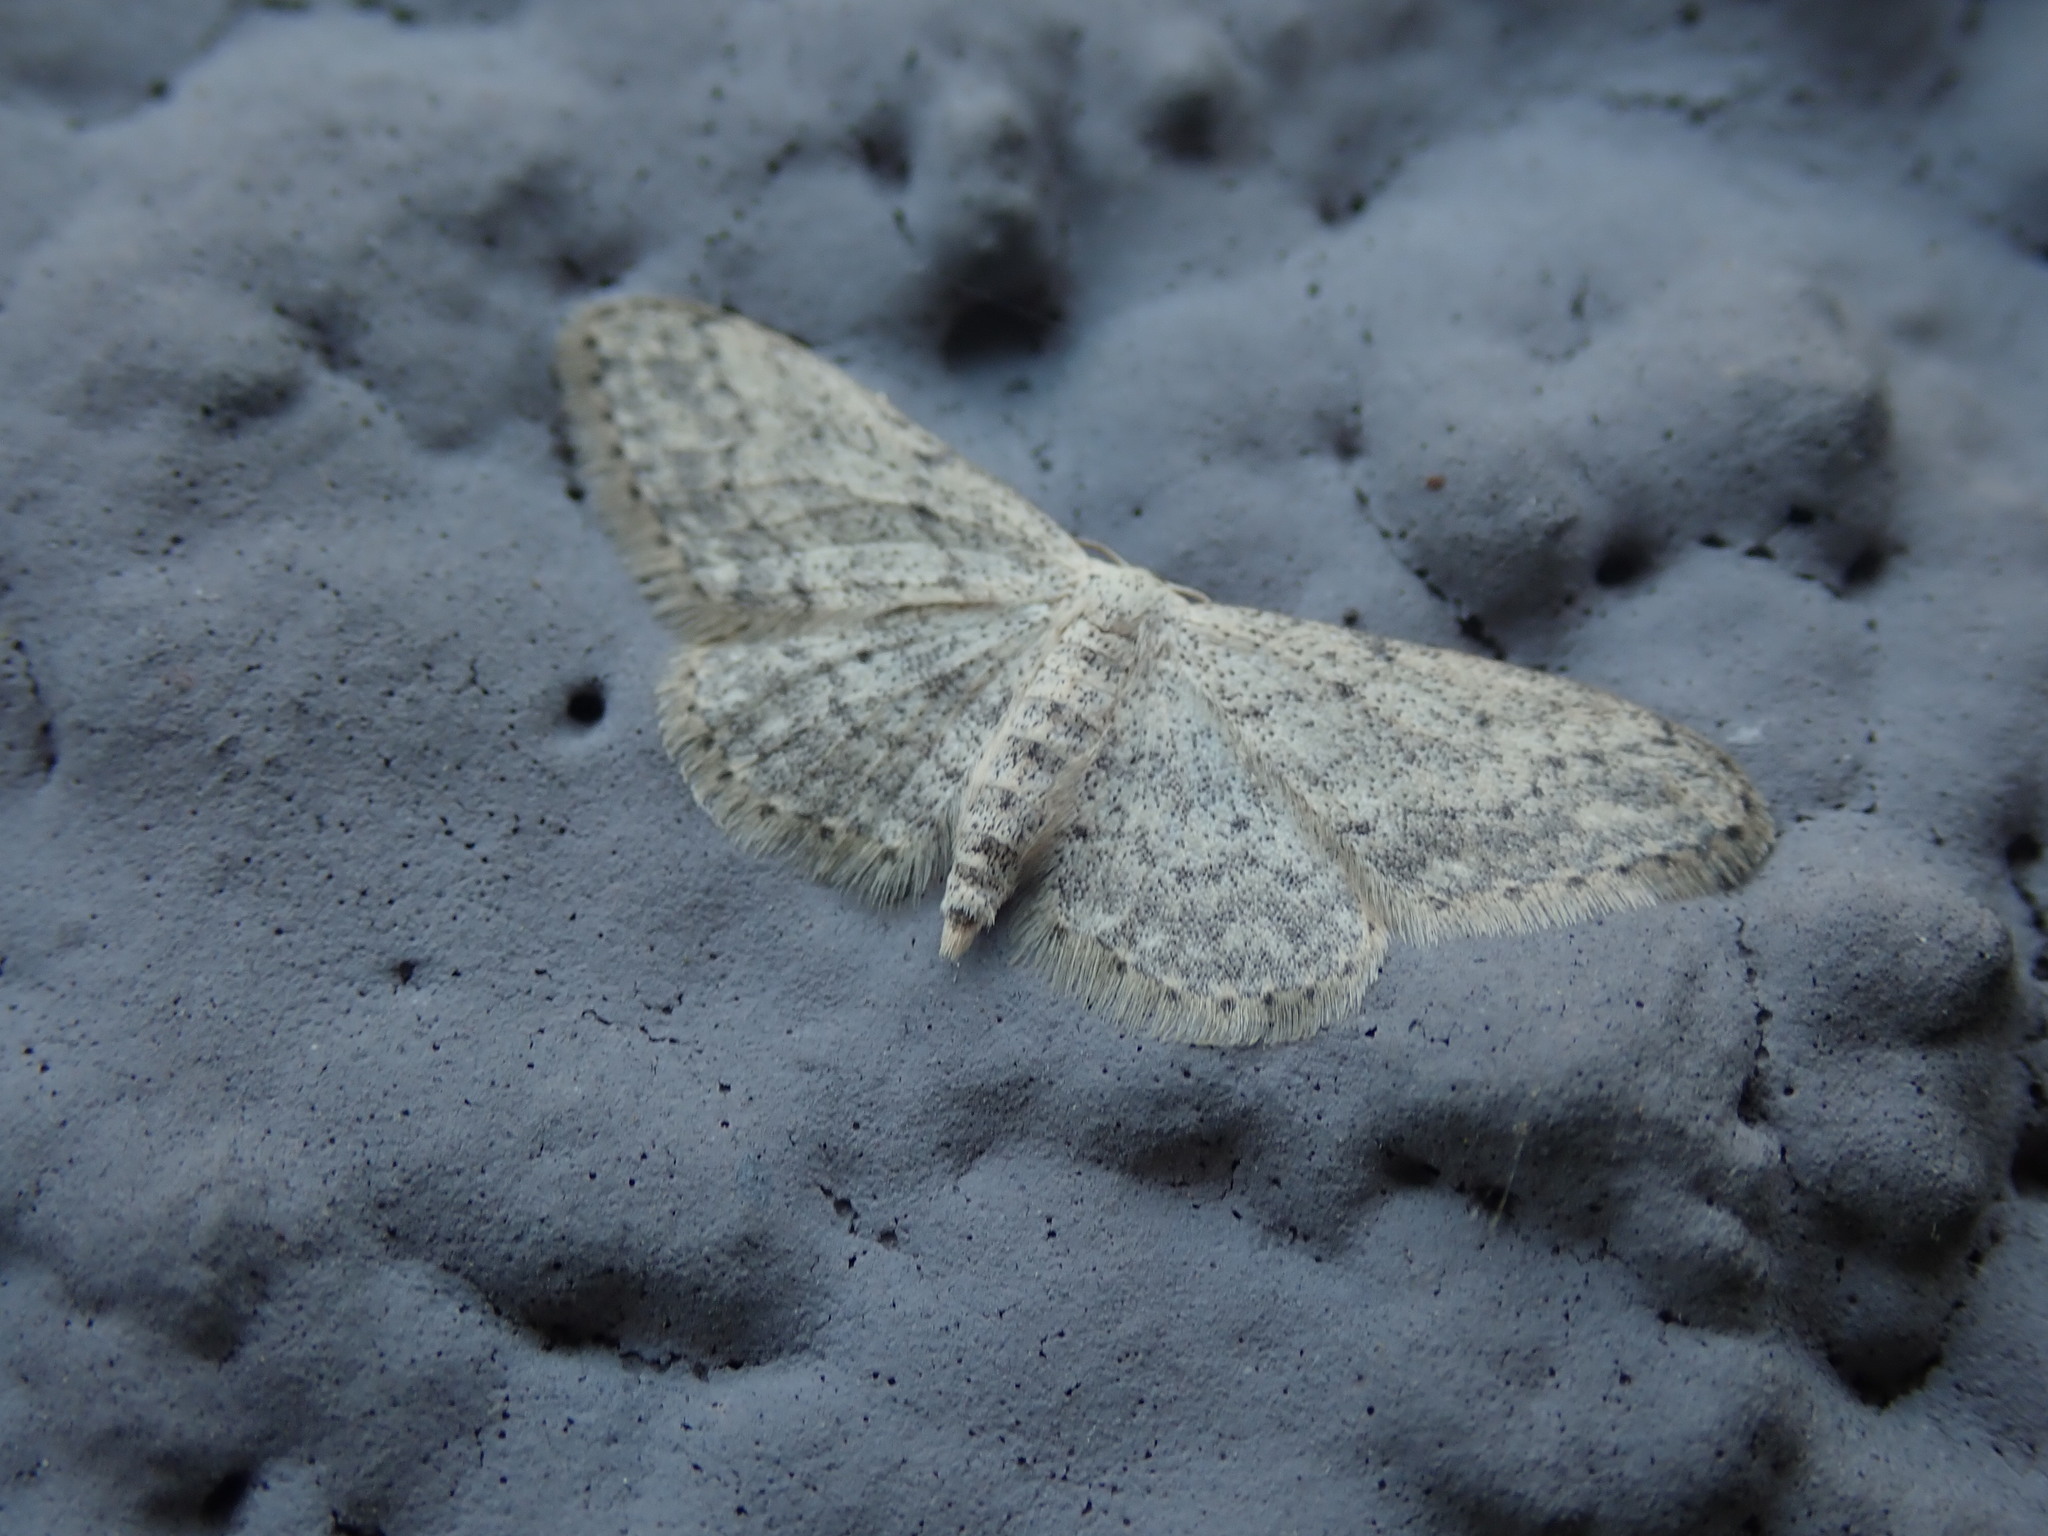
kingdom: Animalia
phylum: Arthropoda
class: Insecta
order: Lepidoptera
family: Geometridae
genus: Idaea
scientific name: Idaea seriata
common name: Small dusty wave
